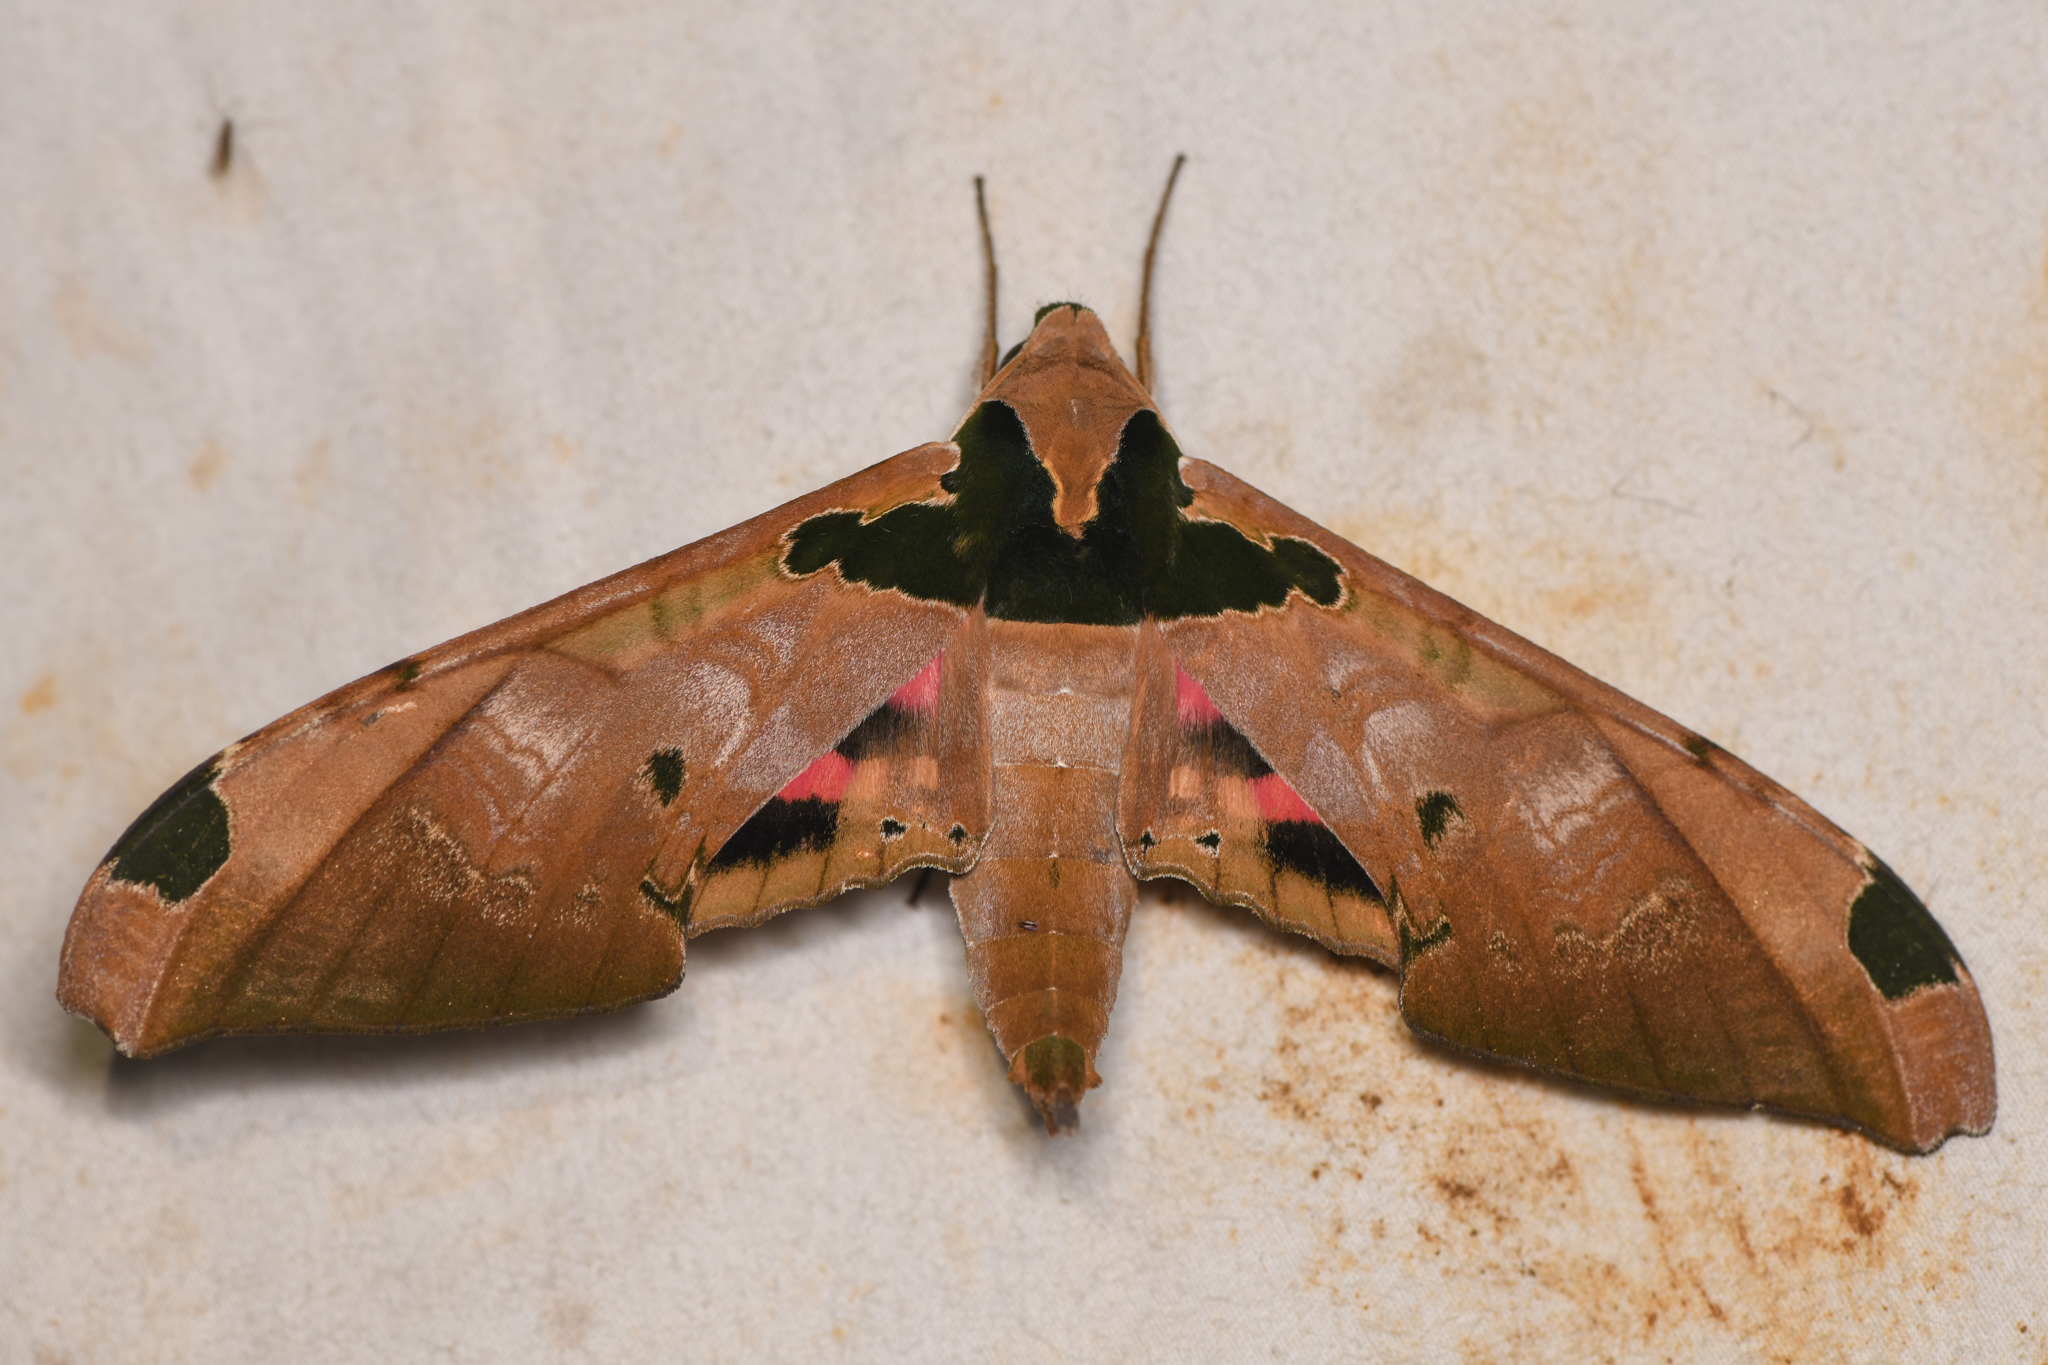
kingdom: Animalia
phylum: Arthropoda
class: Insecta
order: Lepidoptera
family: Sphingidae
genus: Adhemarius
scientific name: Adhemarius ypsilon
